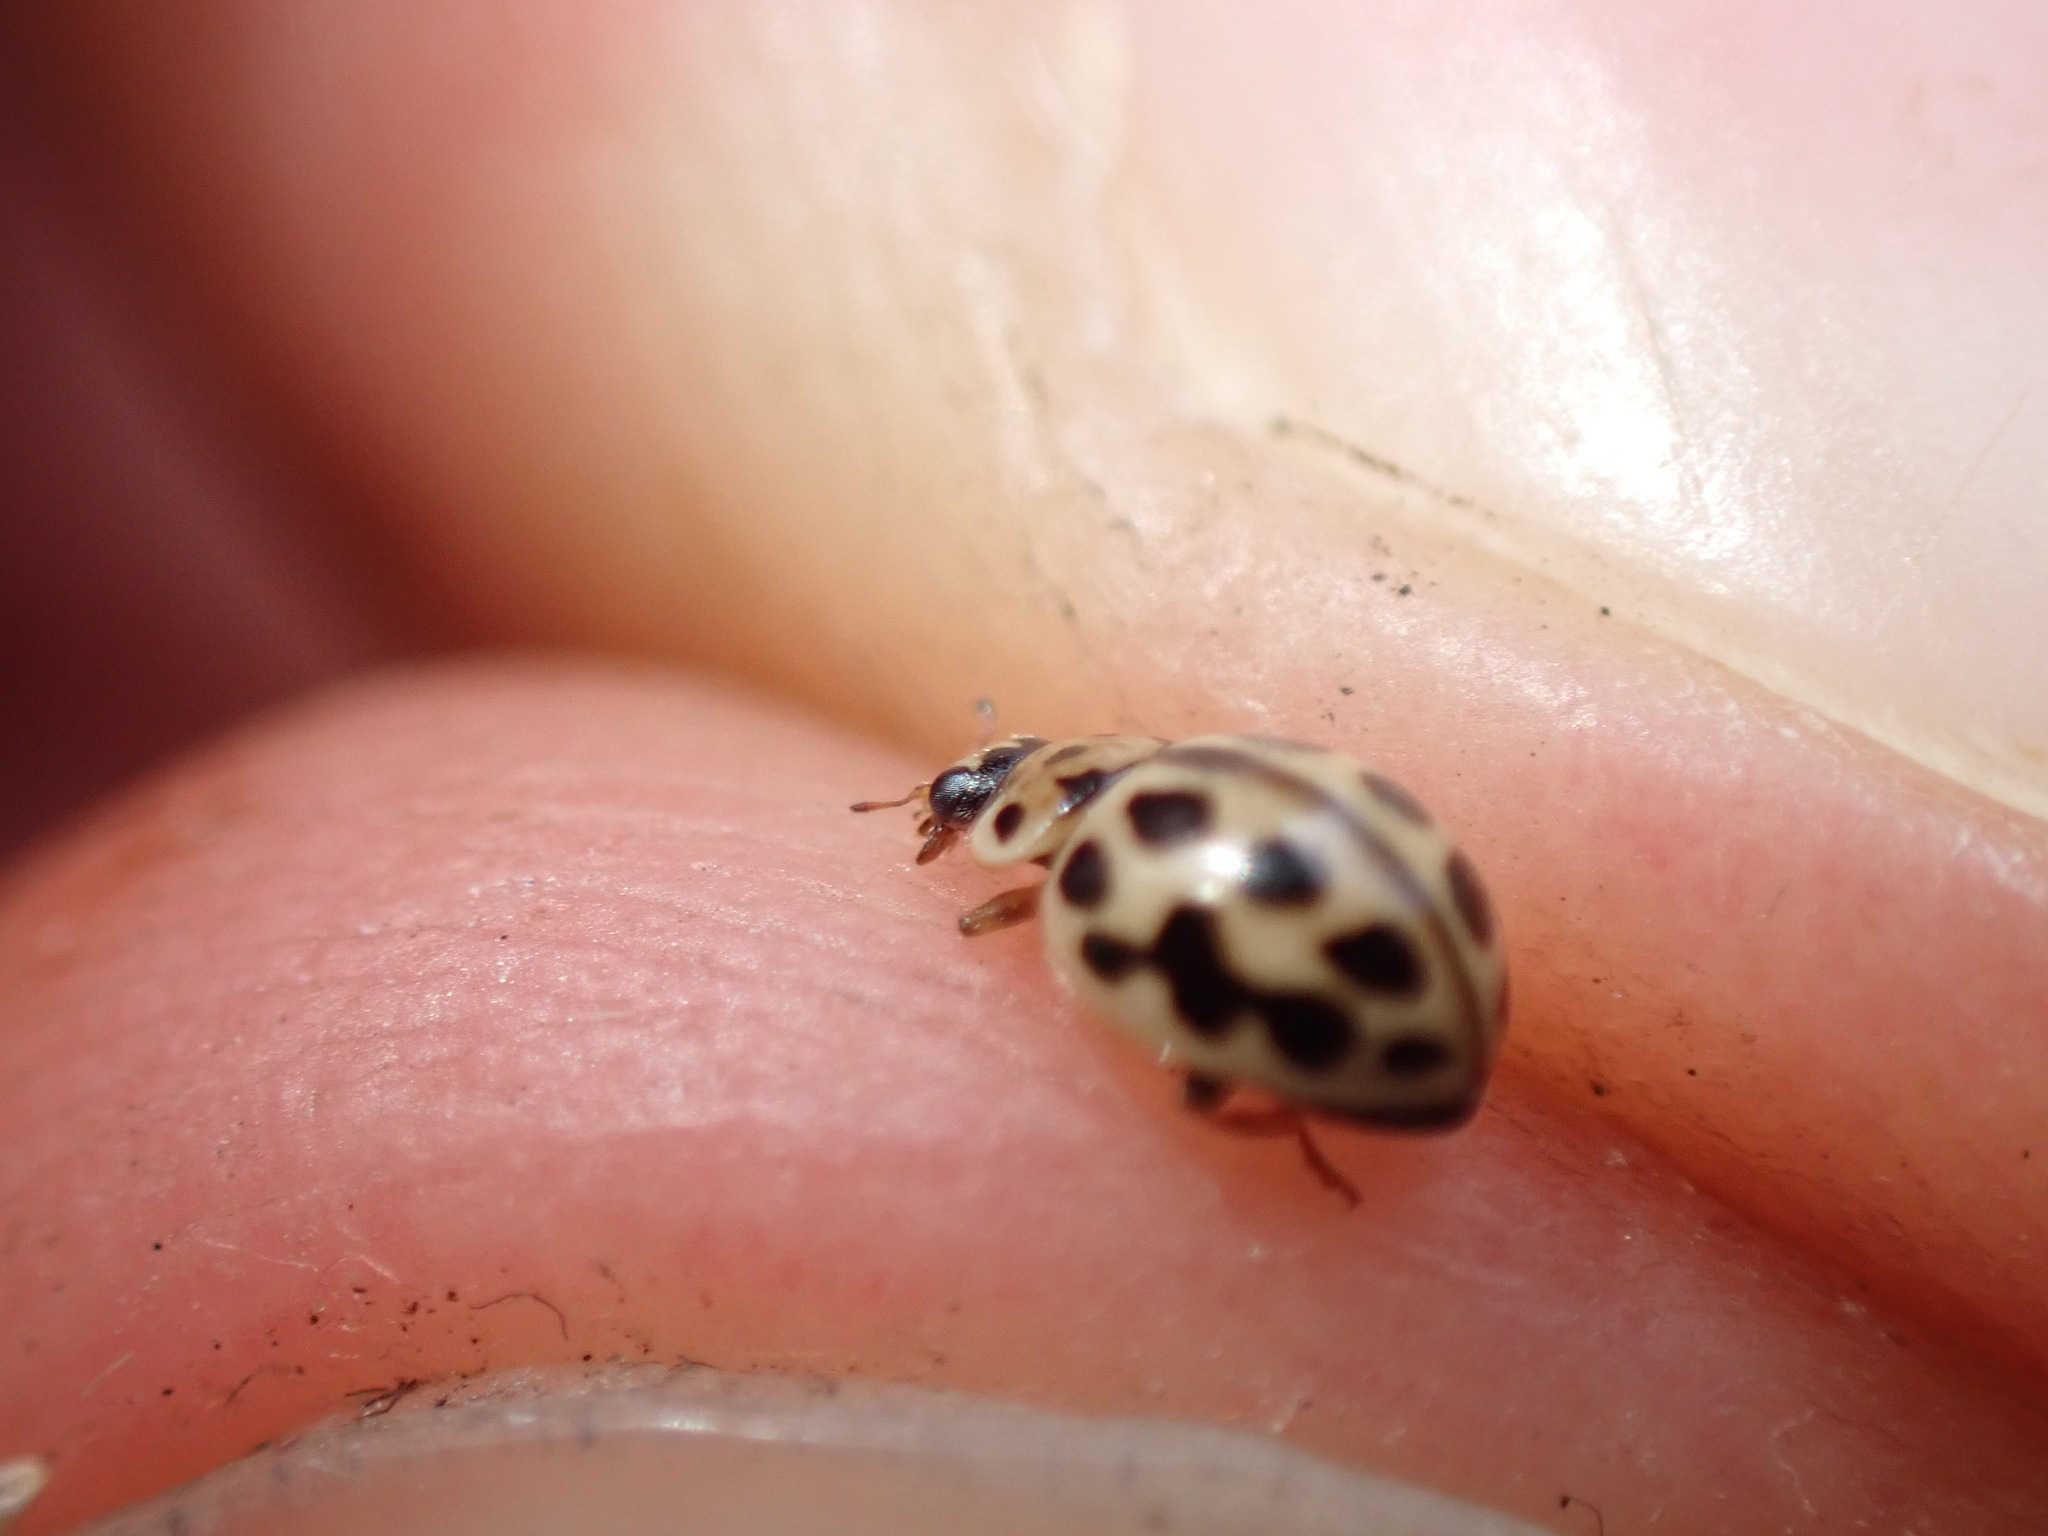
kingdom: Animalia
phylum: Arthropoda
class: Insecta
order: Coleoptera
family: Coccinellidae
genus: Tytthaspis
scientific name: Tytthaspis sedecimpunctata
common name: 16-spot ladybird
